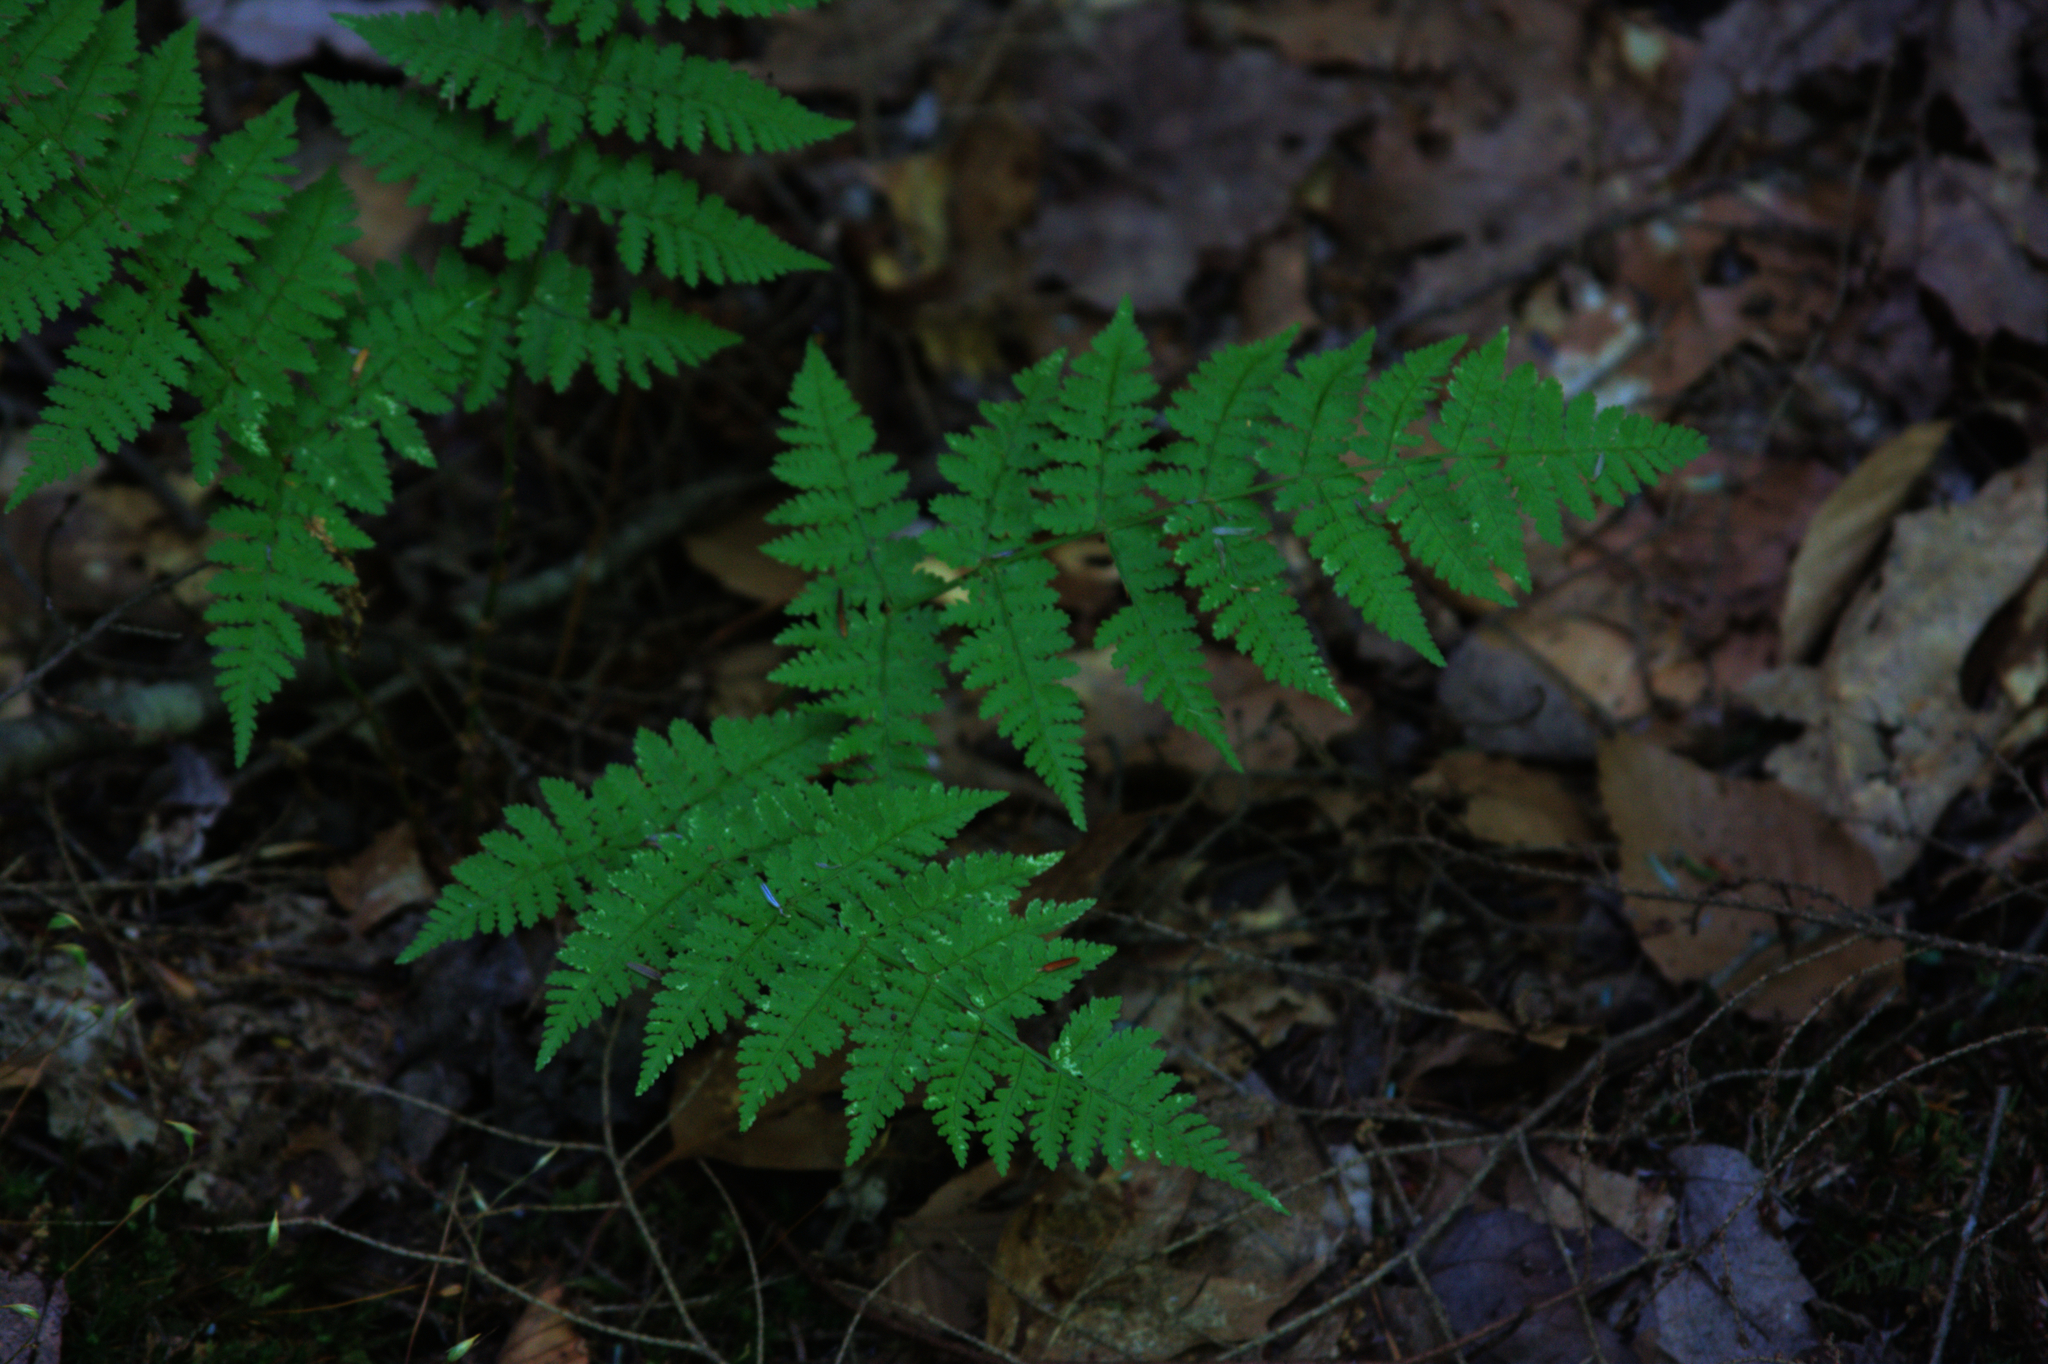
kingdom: Plantae
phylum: Tracheophyta
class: Polypodiopsida
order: Polypodiales
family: Dryopteridaceae
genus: Dryopteris
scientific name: Dryopteris intermedia
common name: Evergreen wood fern
